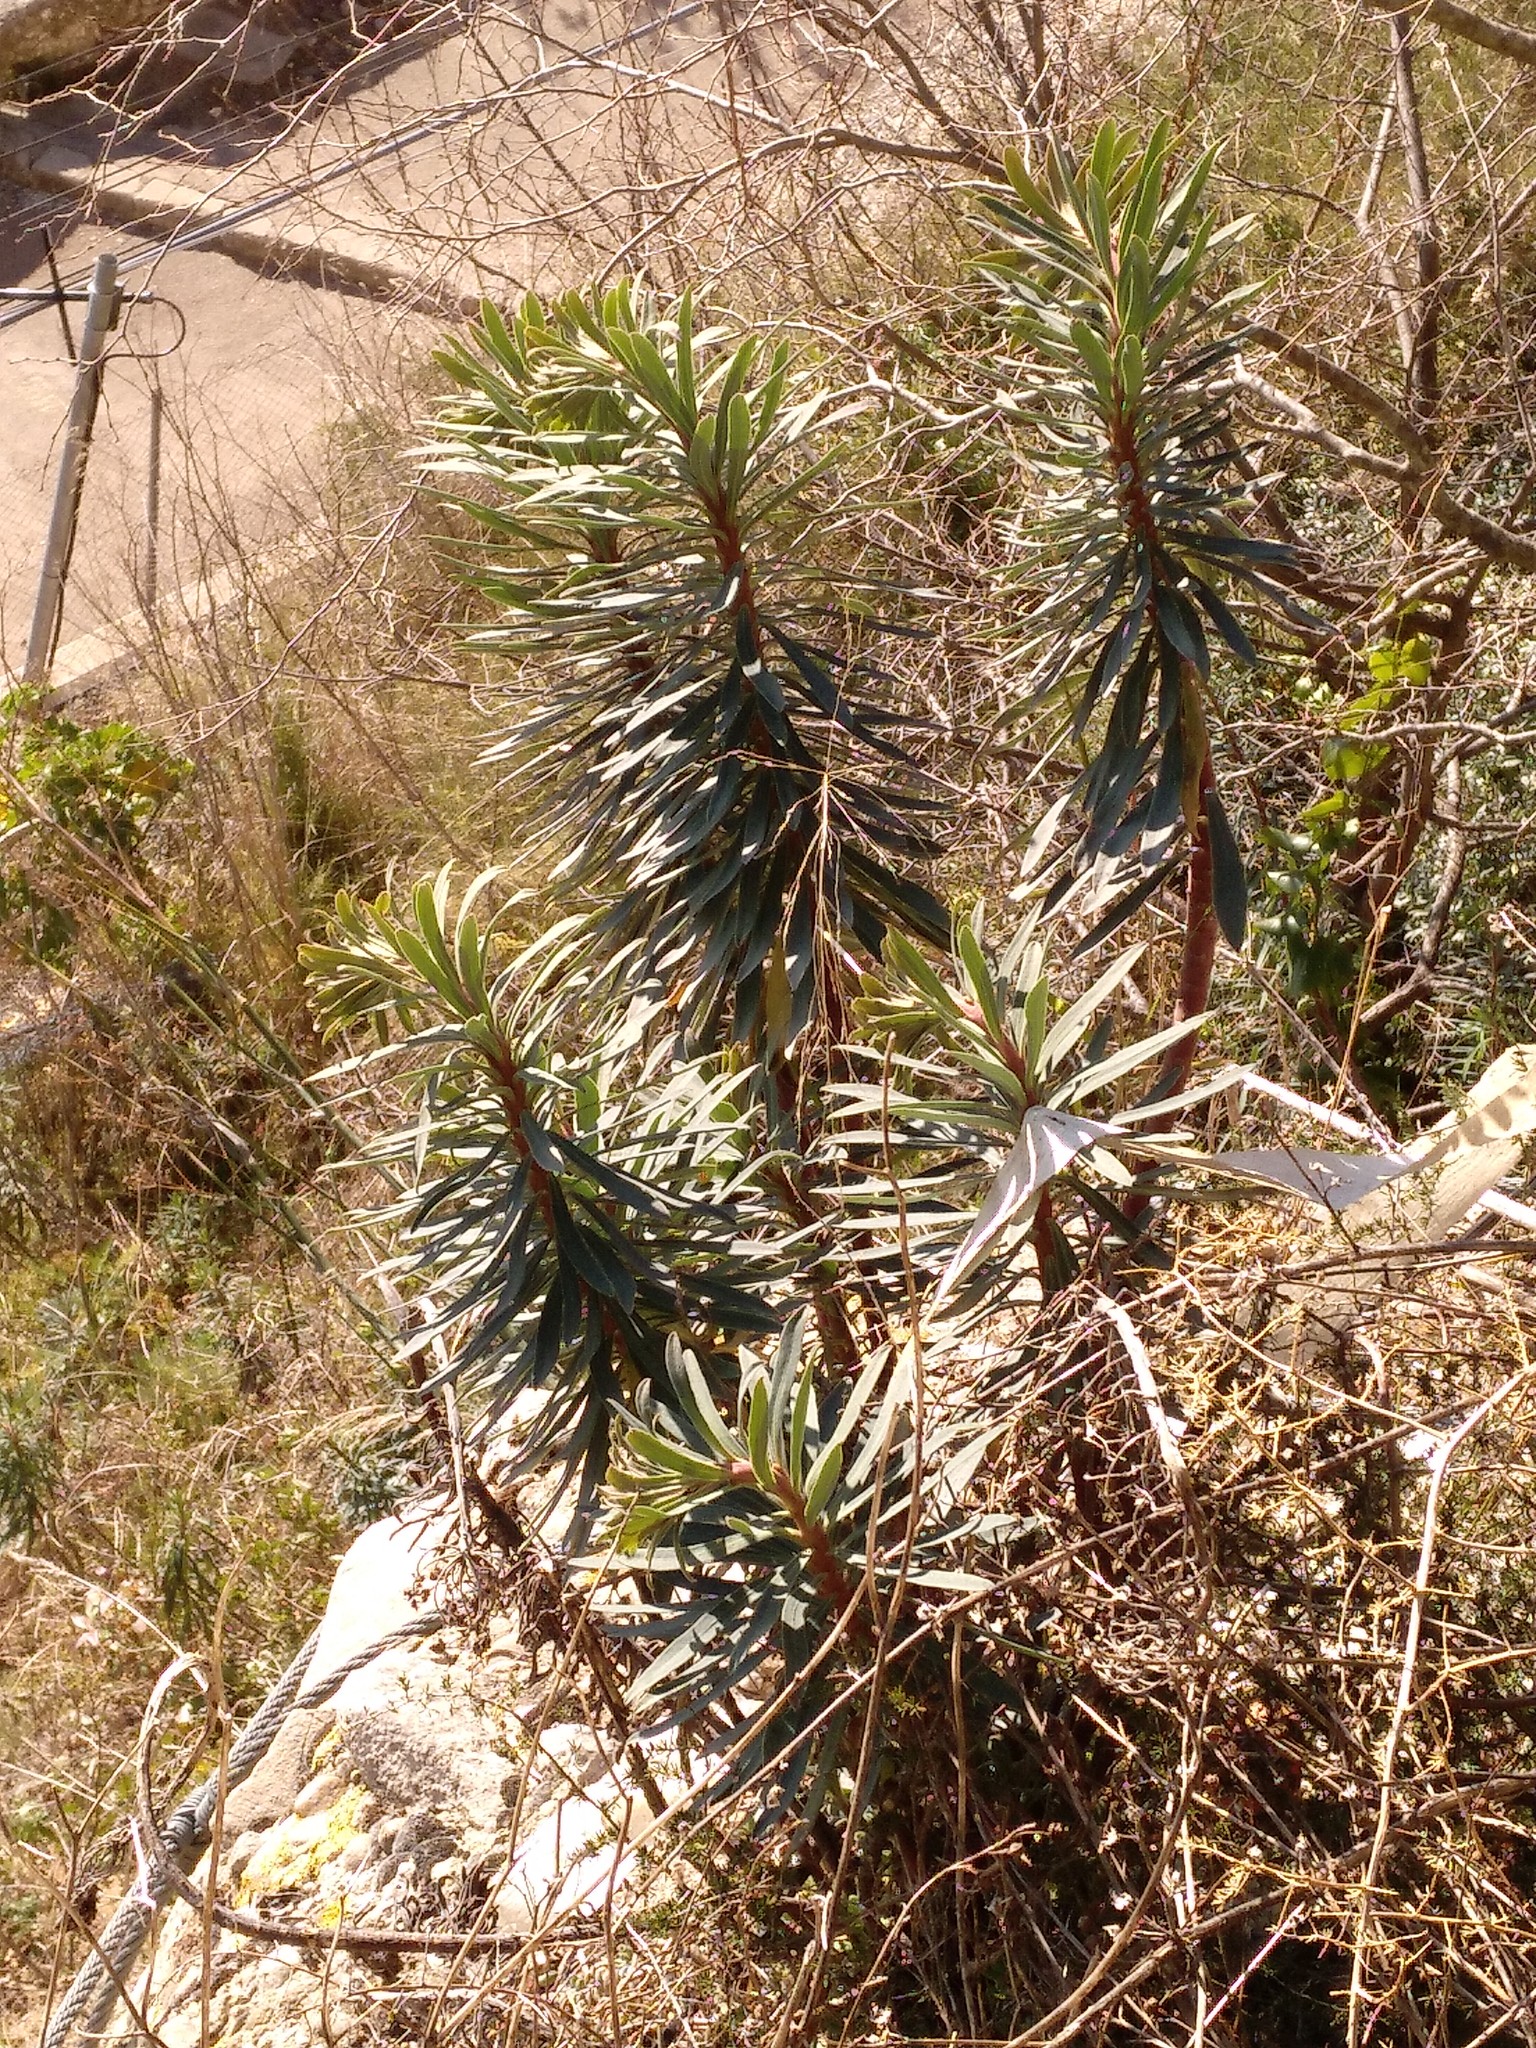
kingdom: Plantae
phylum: Tracheophyta
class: Magnoliopsida
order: Malpighiales
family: Euphorbiaceae
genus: Euphorbia
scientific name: Euphorbia characias
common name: Mediterranean spurge
